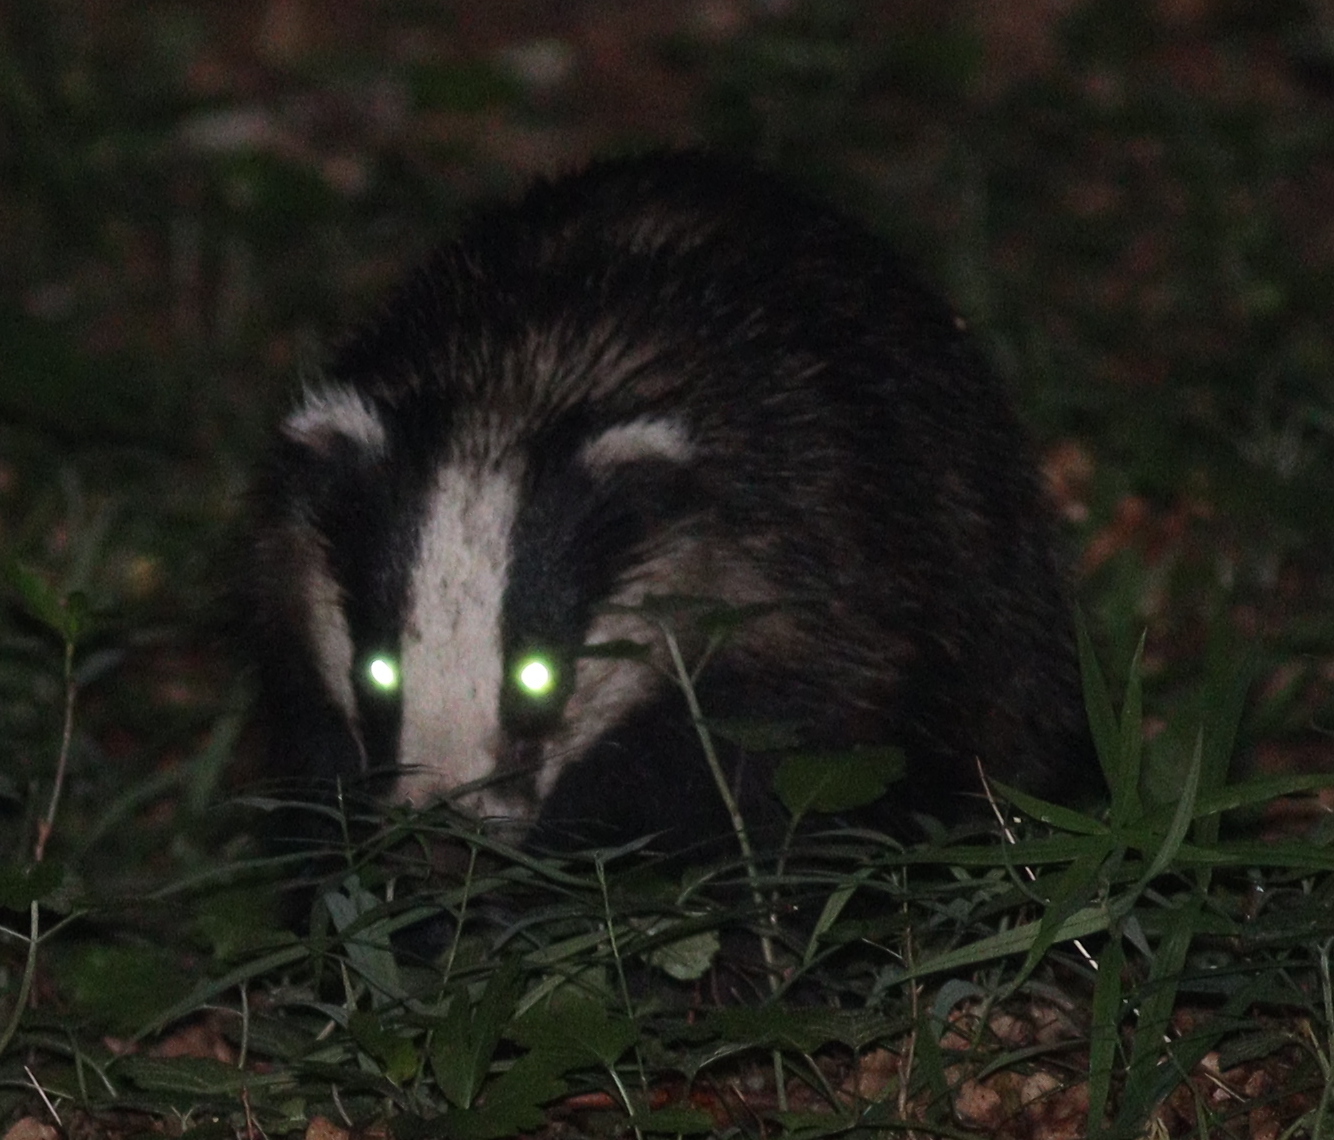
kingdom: Animalia
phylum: Chordata
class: Mammalia
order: Carnivora
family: Mustelidae
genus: Meles
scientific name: Meles meles
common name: Eurasian badger
